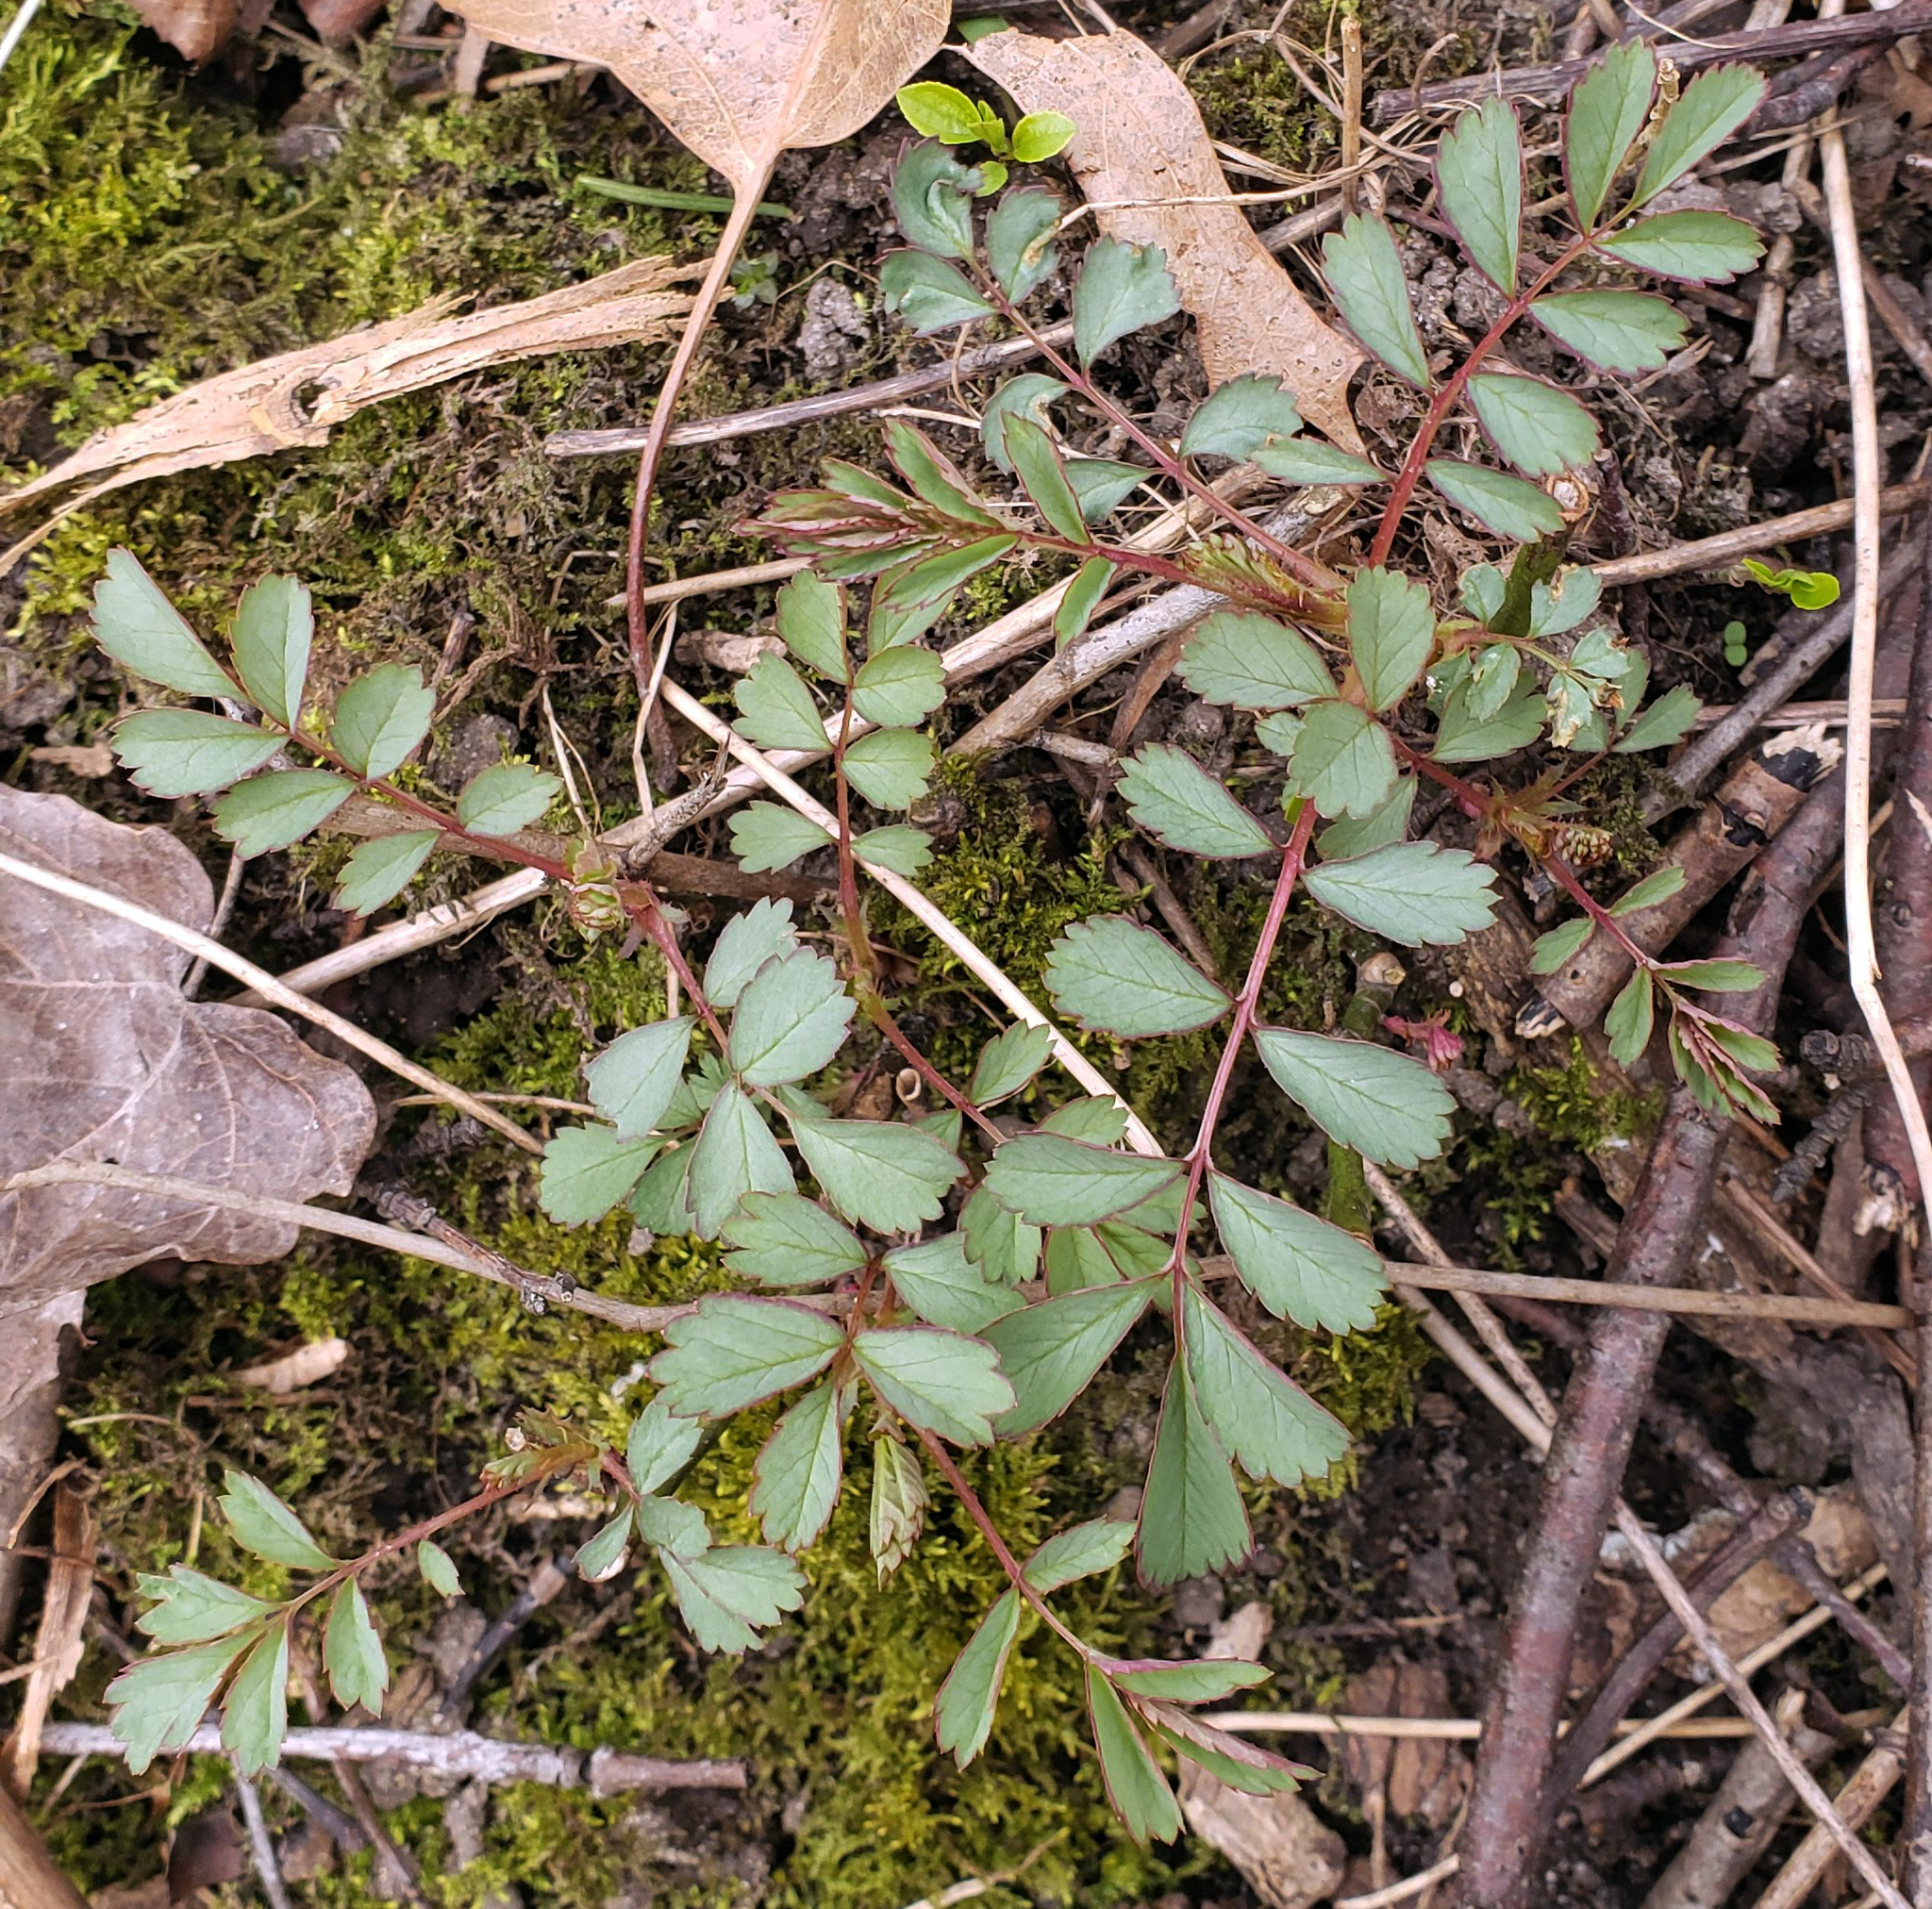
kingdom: Plantae
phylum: Tracheophyta
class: Magnoliopsida
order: Rosales
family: Rosaceae
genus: Rosa
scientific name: Rosa multiflora
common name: Multiflora rose
